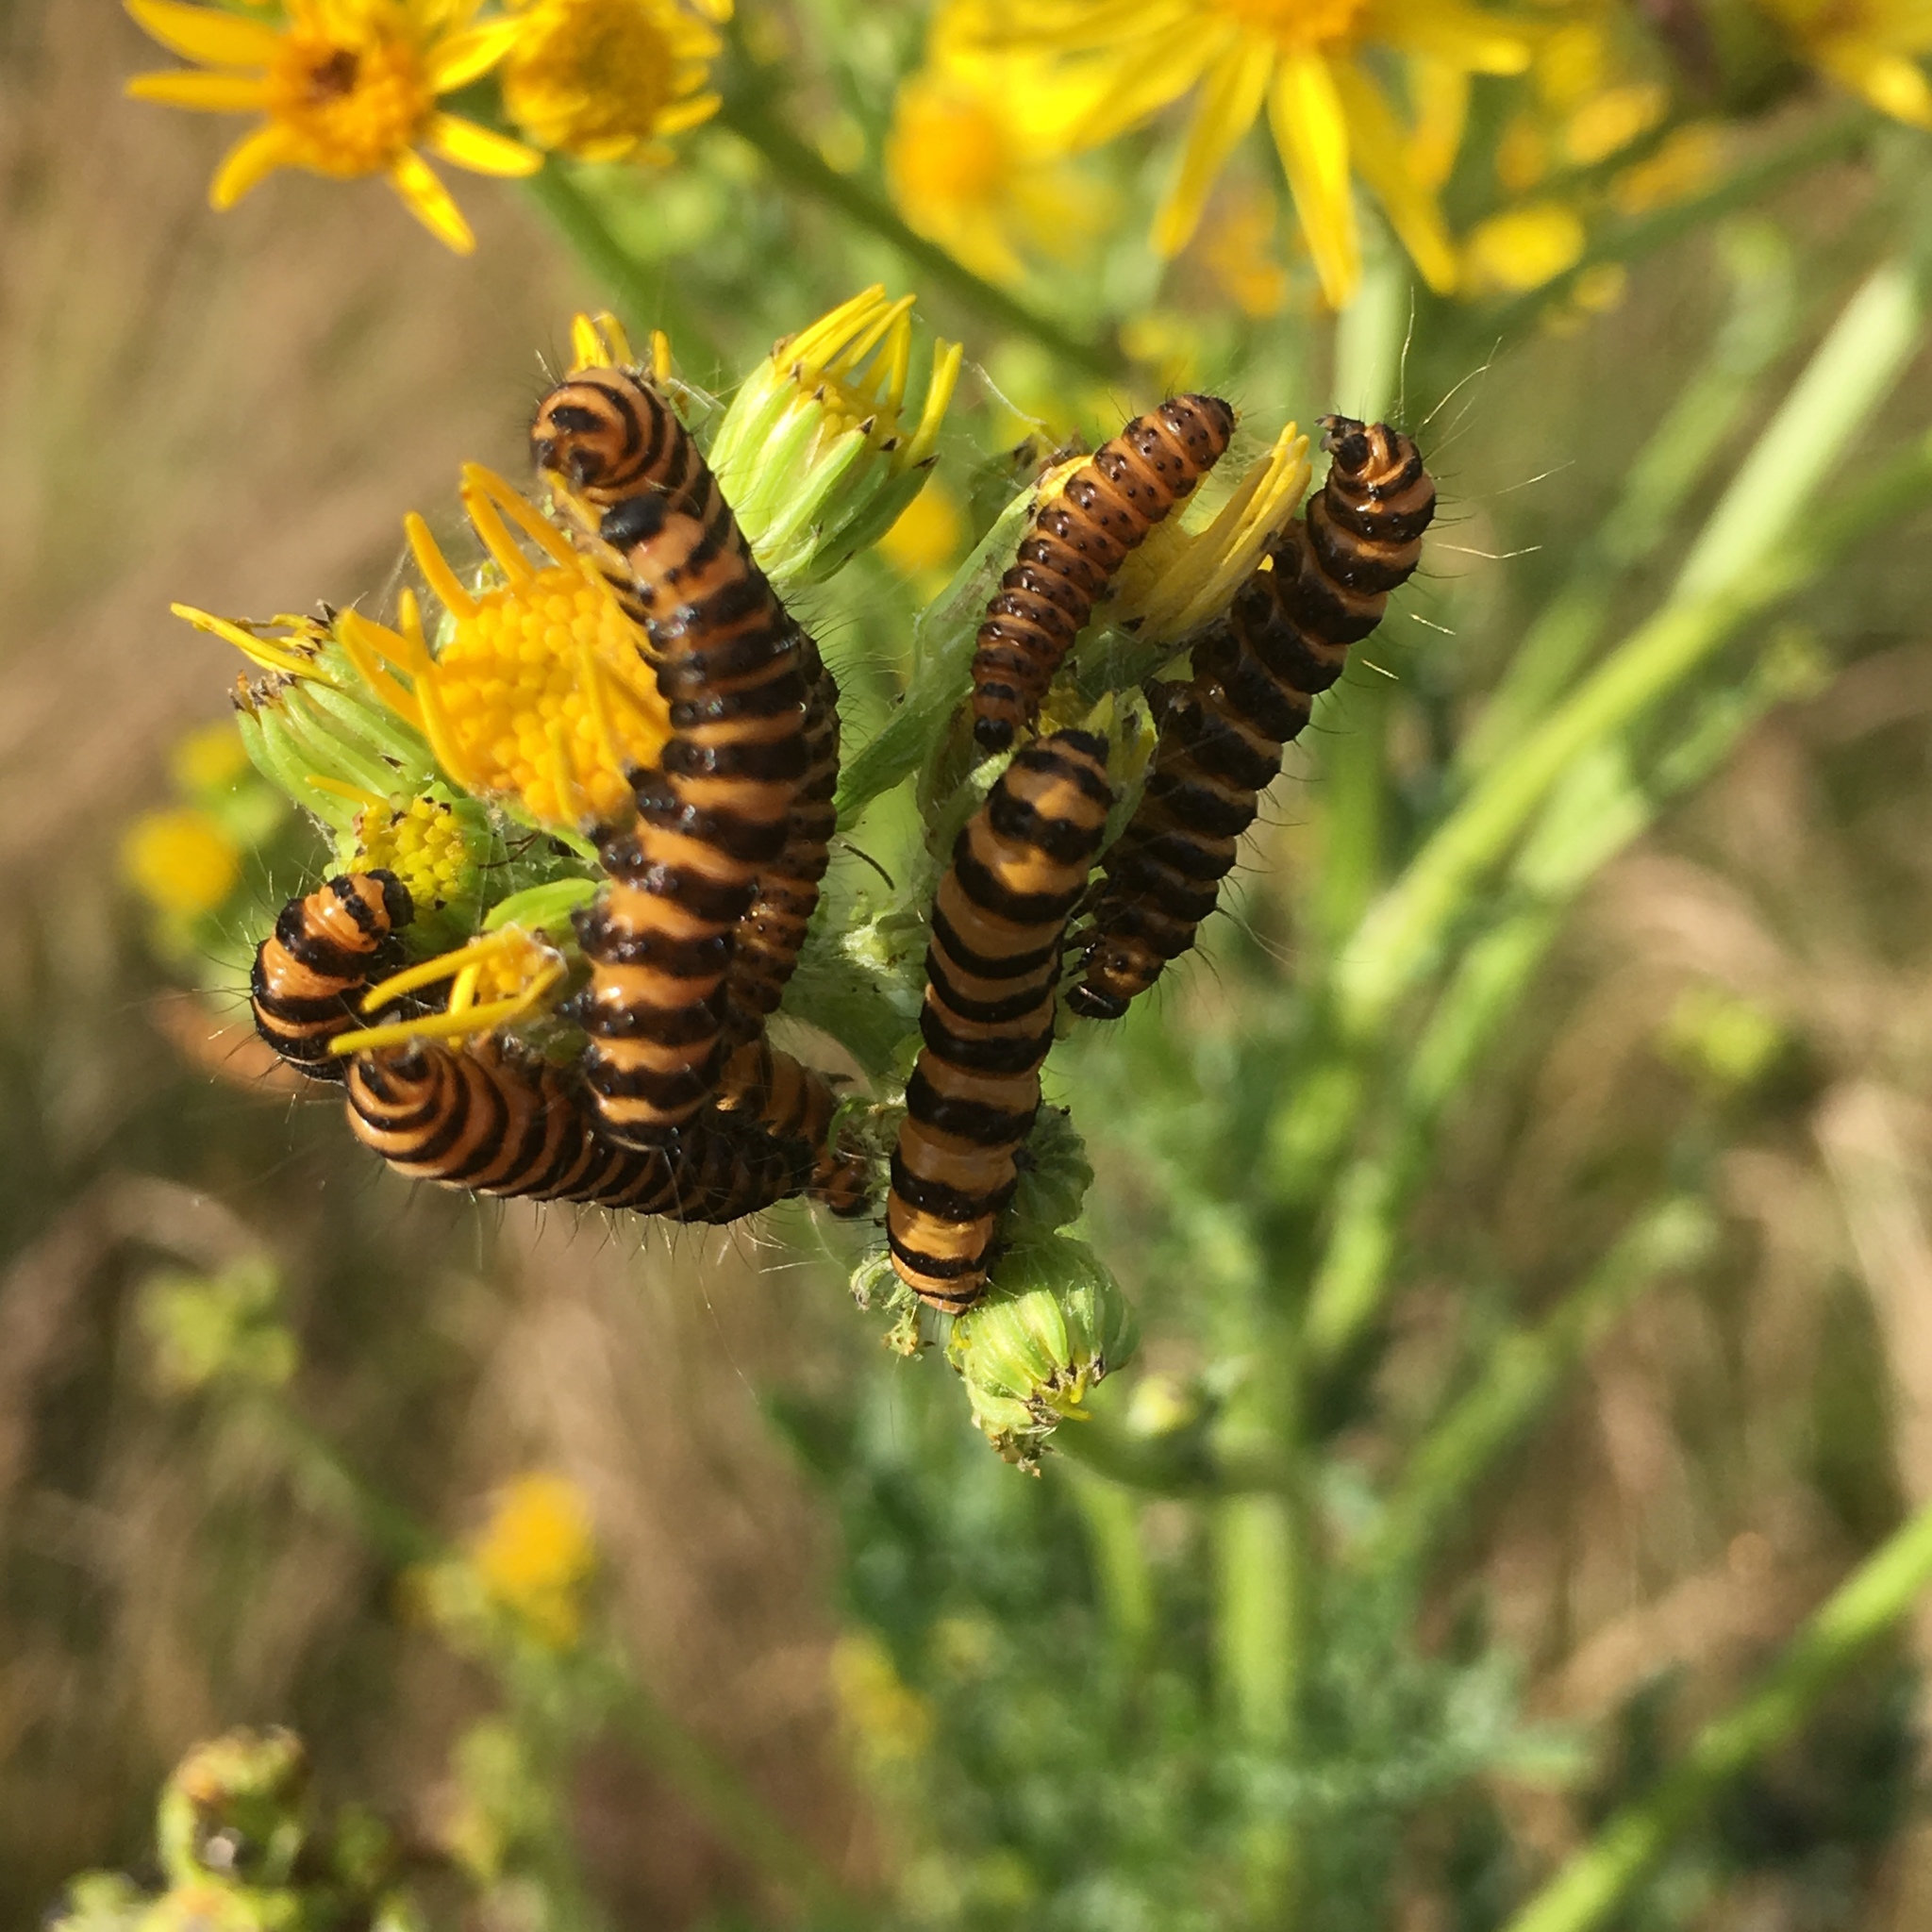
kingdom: Animalia
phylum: Arthropoda
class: Insecta
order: Lepidoptera
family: Erebidae
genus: Tyria
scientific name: Tyria jacobaeae
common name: Cinnabar
